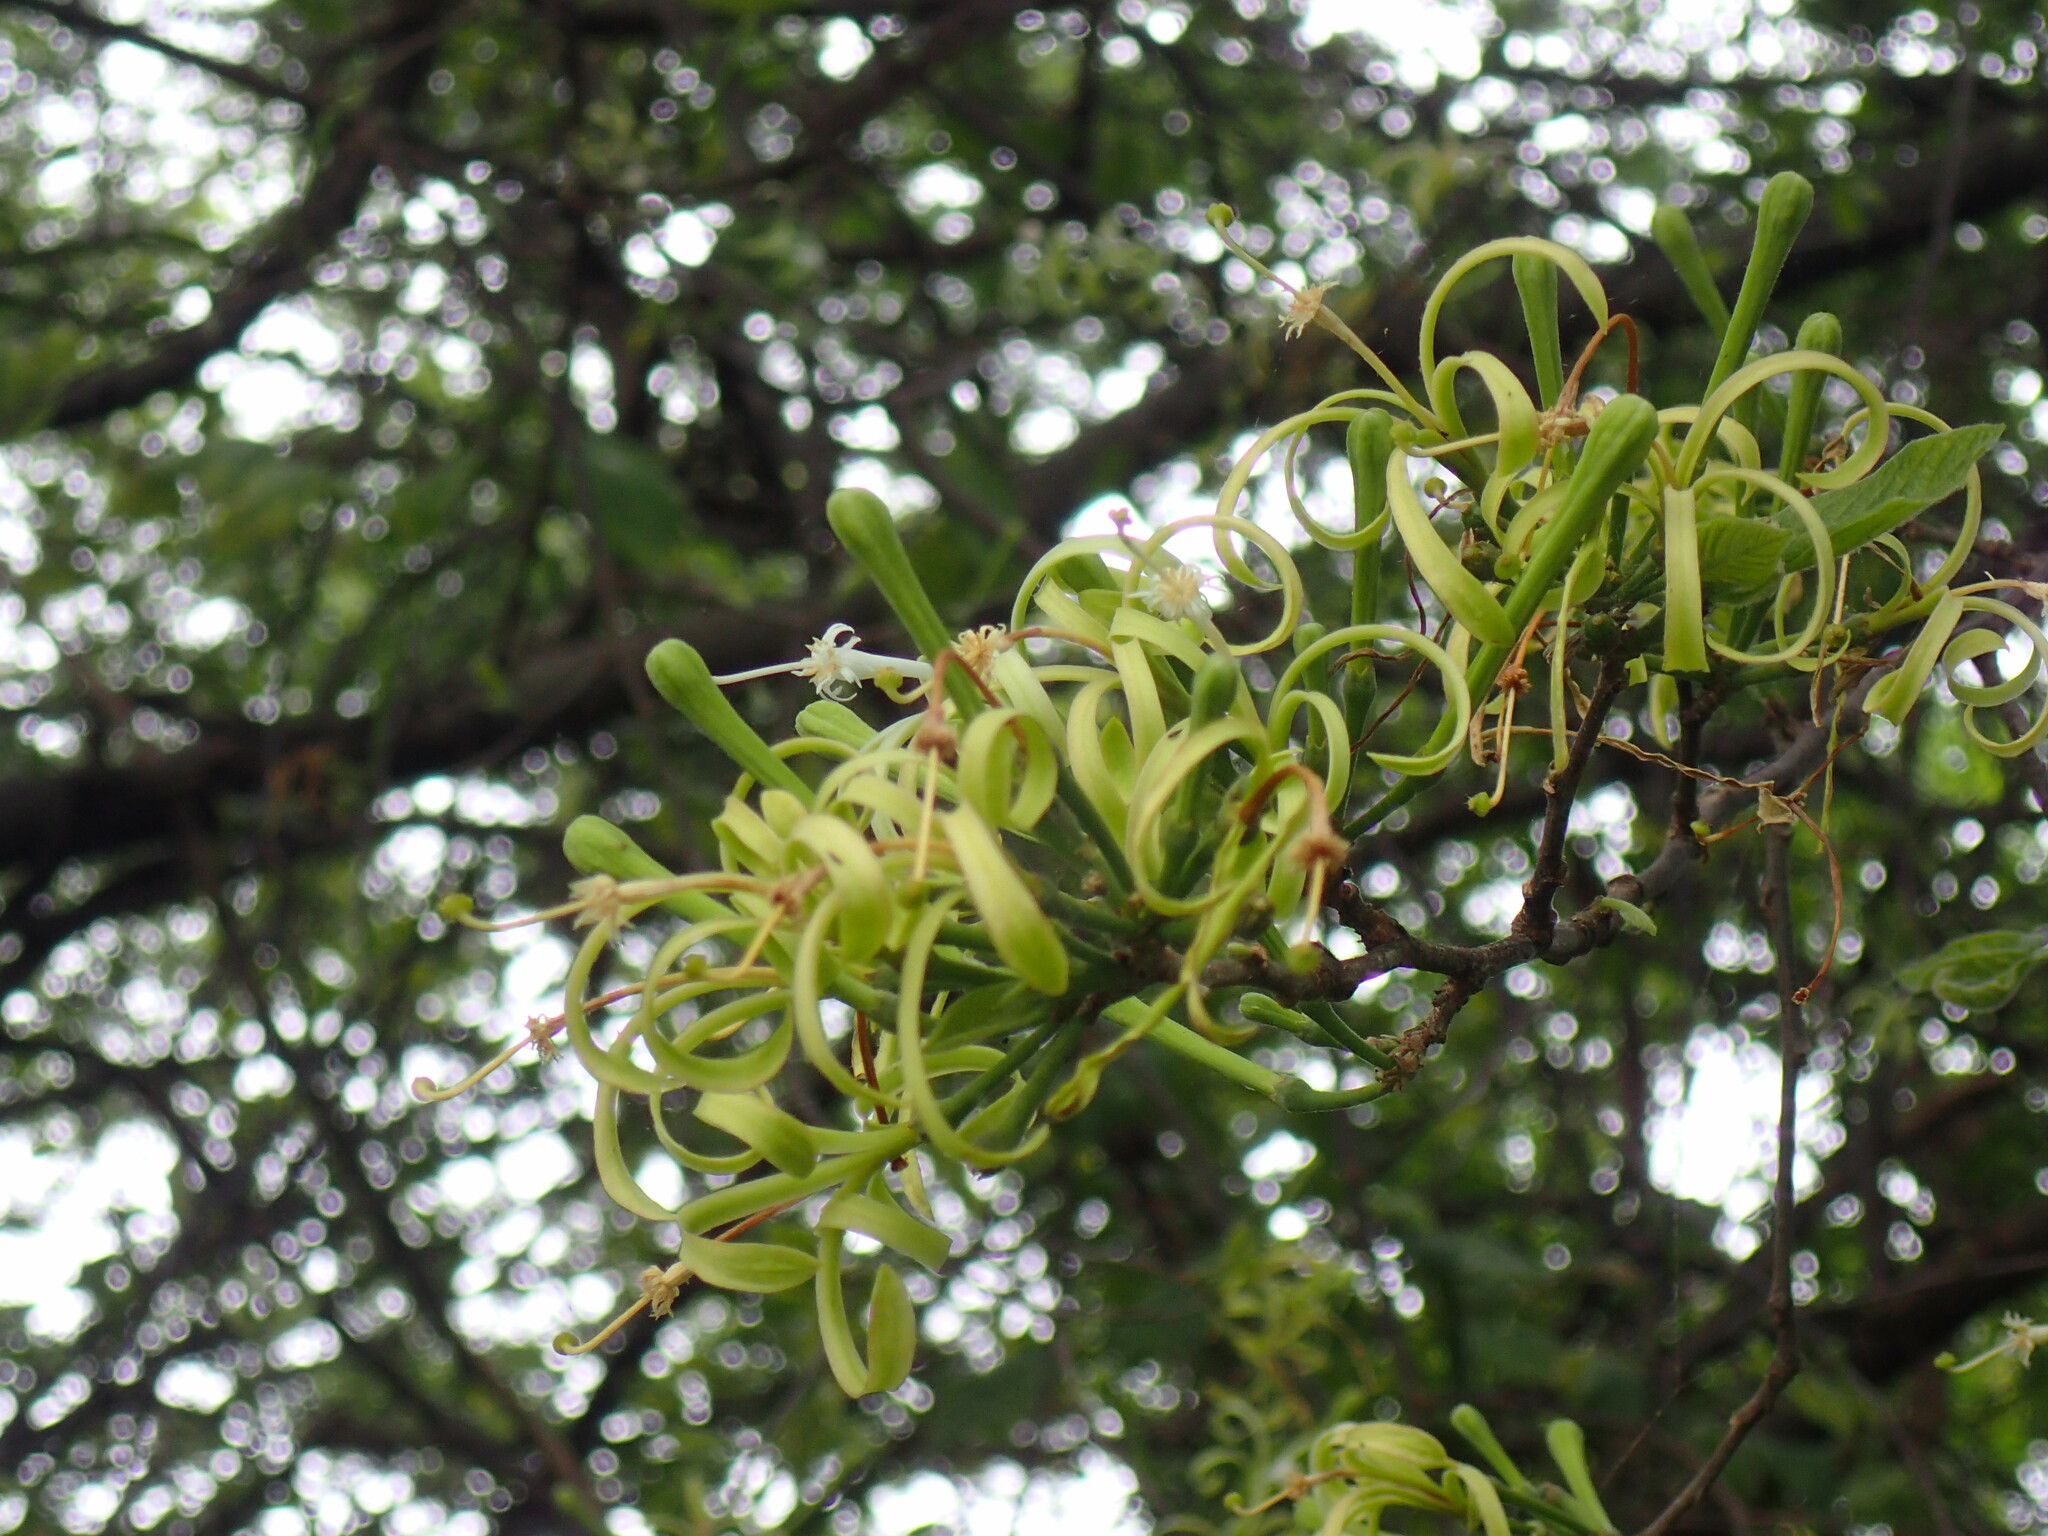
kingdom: Plantae
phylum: Tracheophyta
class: Magnoliopsida
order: Sapindales
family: Meliaceae
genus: Turraea
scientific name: Turraea floribunda
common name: Honeysuckle tree
